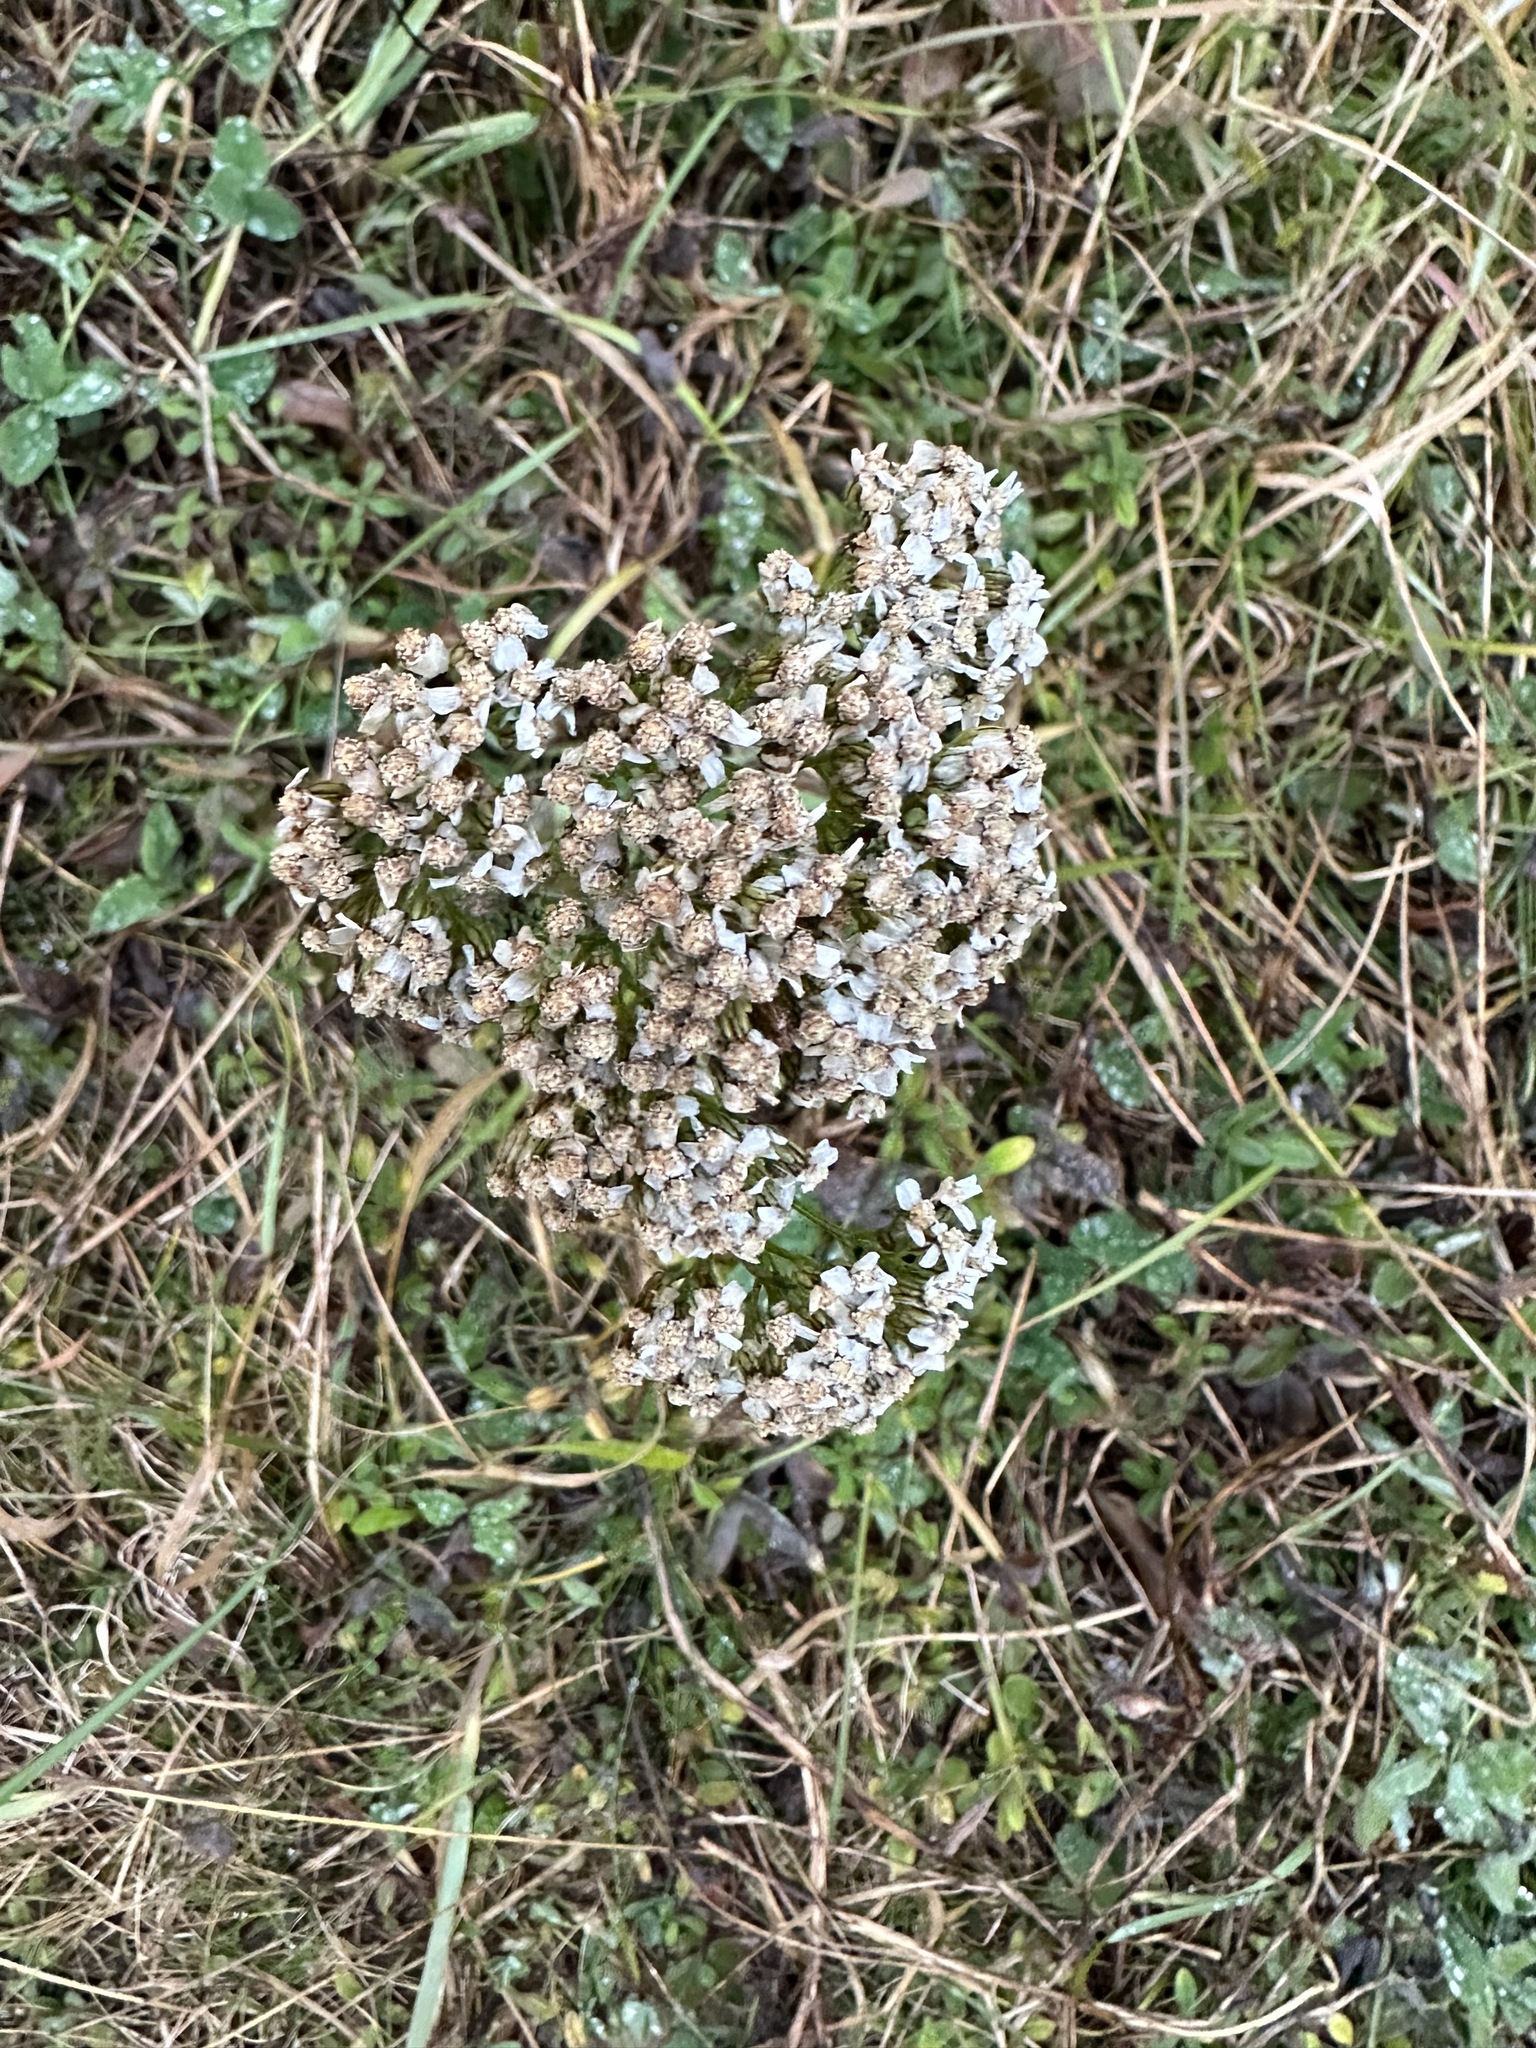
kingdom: Plantae
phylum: Tracheophyta
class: Magnoliopsida
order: Asterales
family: Asteraceae
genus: Achillea
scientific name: Achillea millefolium
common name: Yarrow
